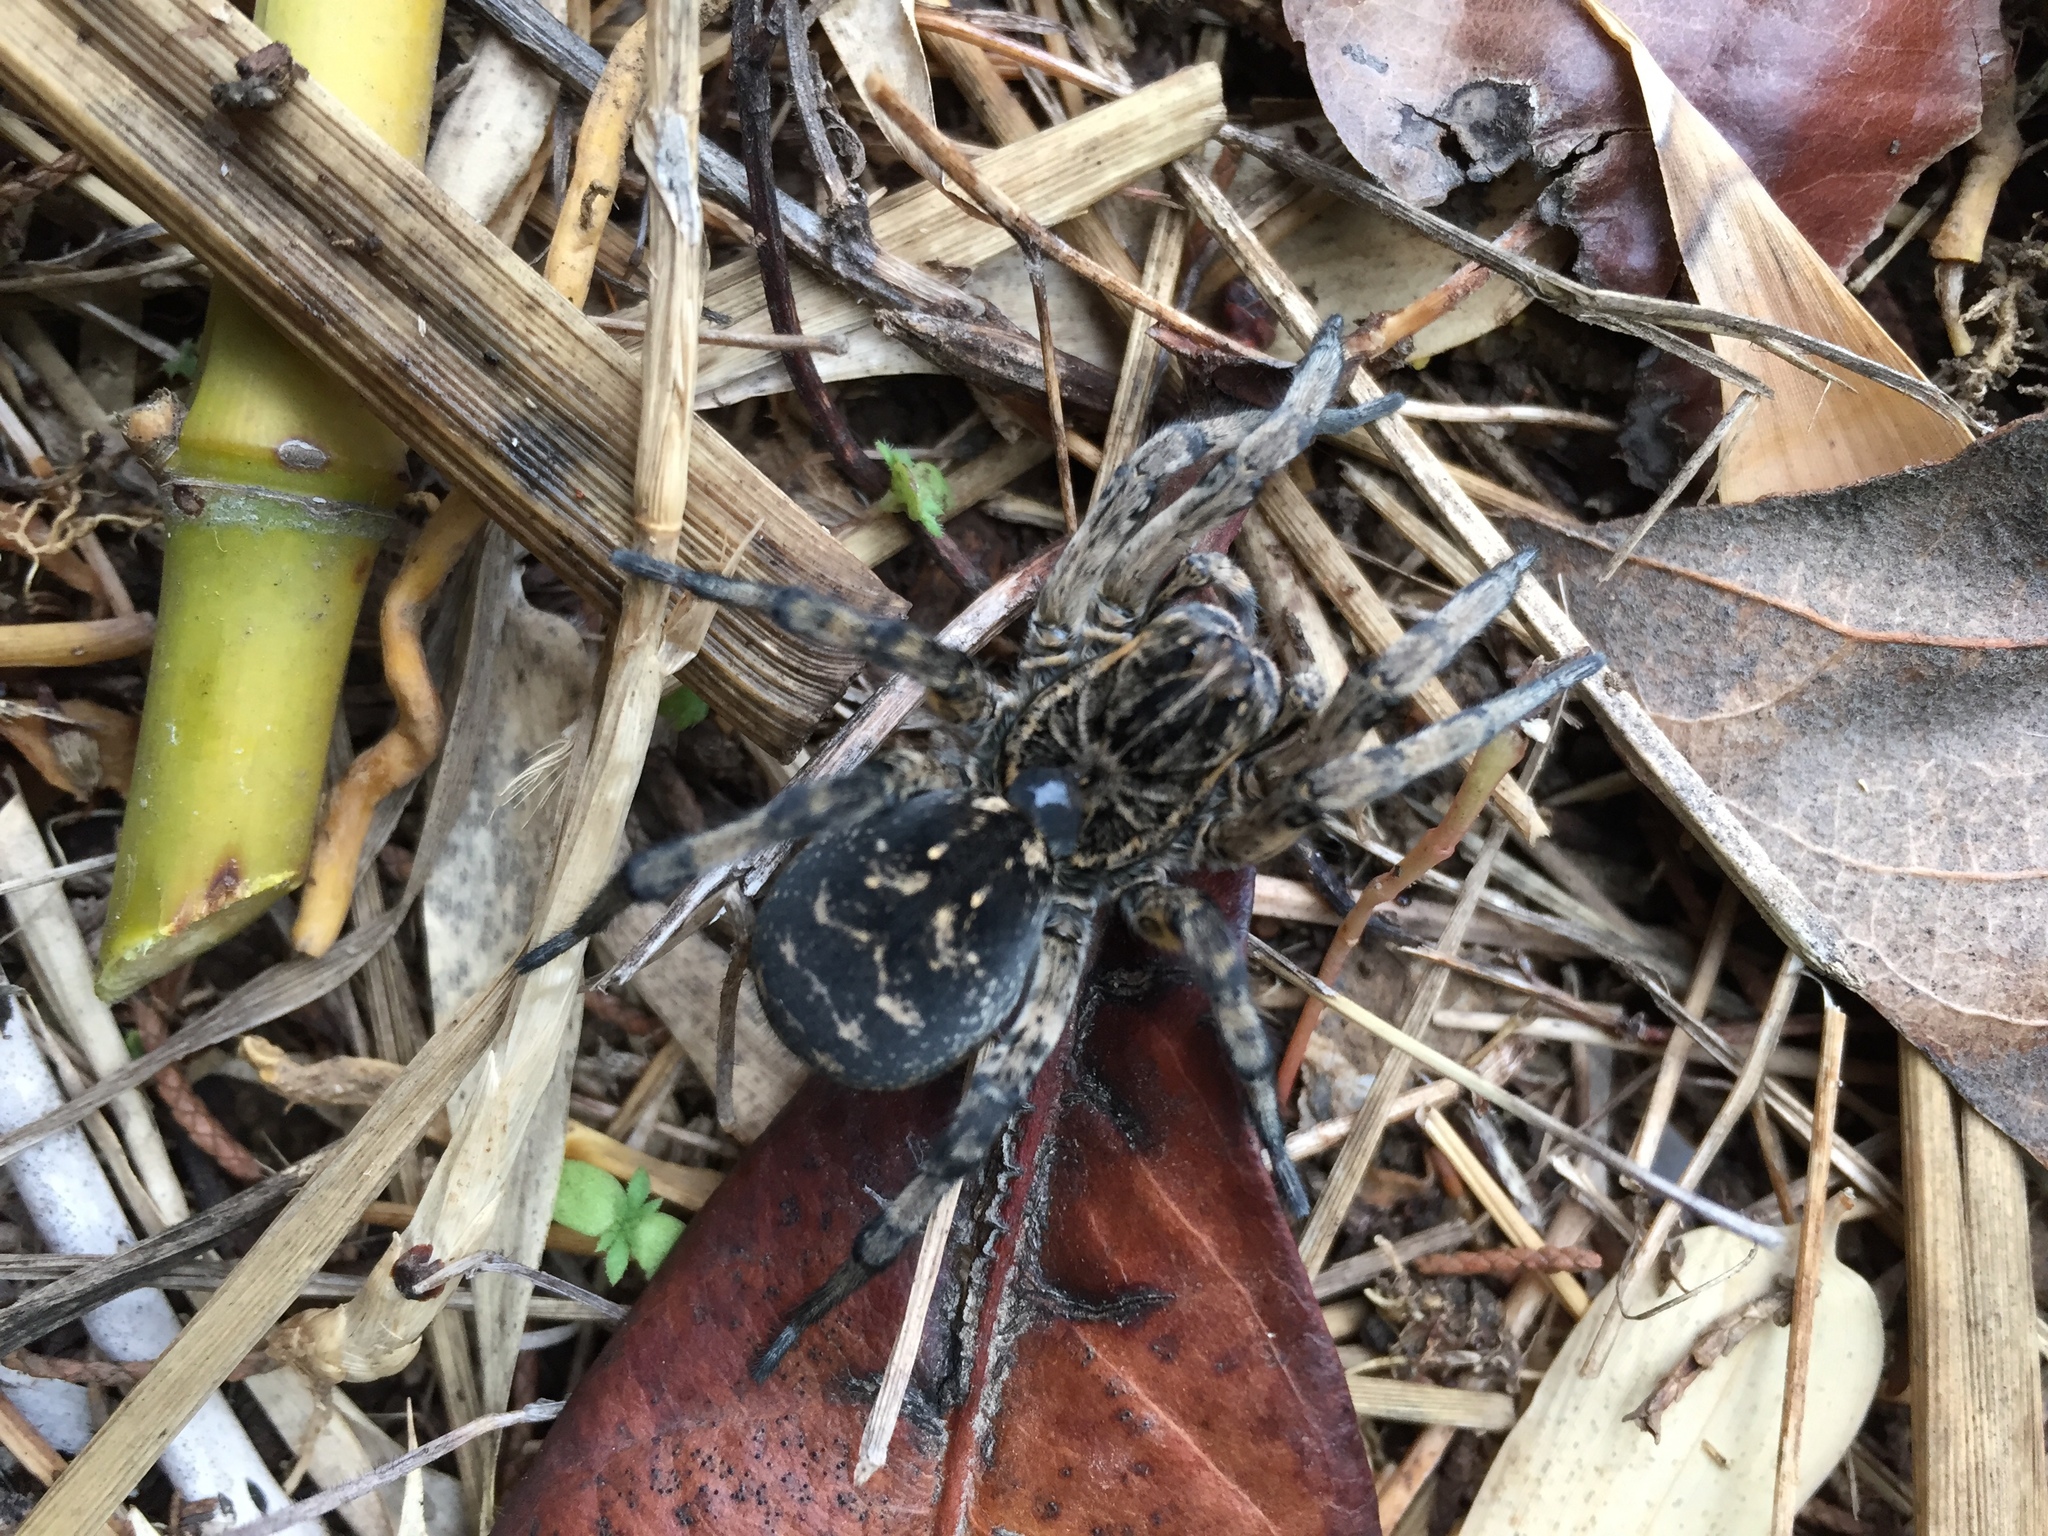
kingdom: Animalia
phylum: Arthropoda
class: Arachnida
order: Araneae
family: Lycosidae
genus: Geolycosa
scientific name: Geolycosa vultuosa
